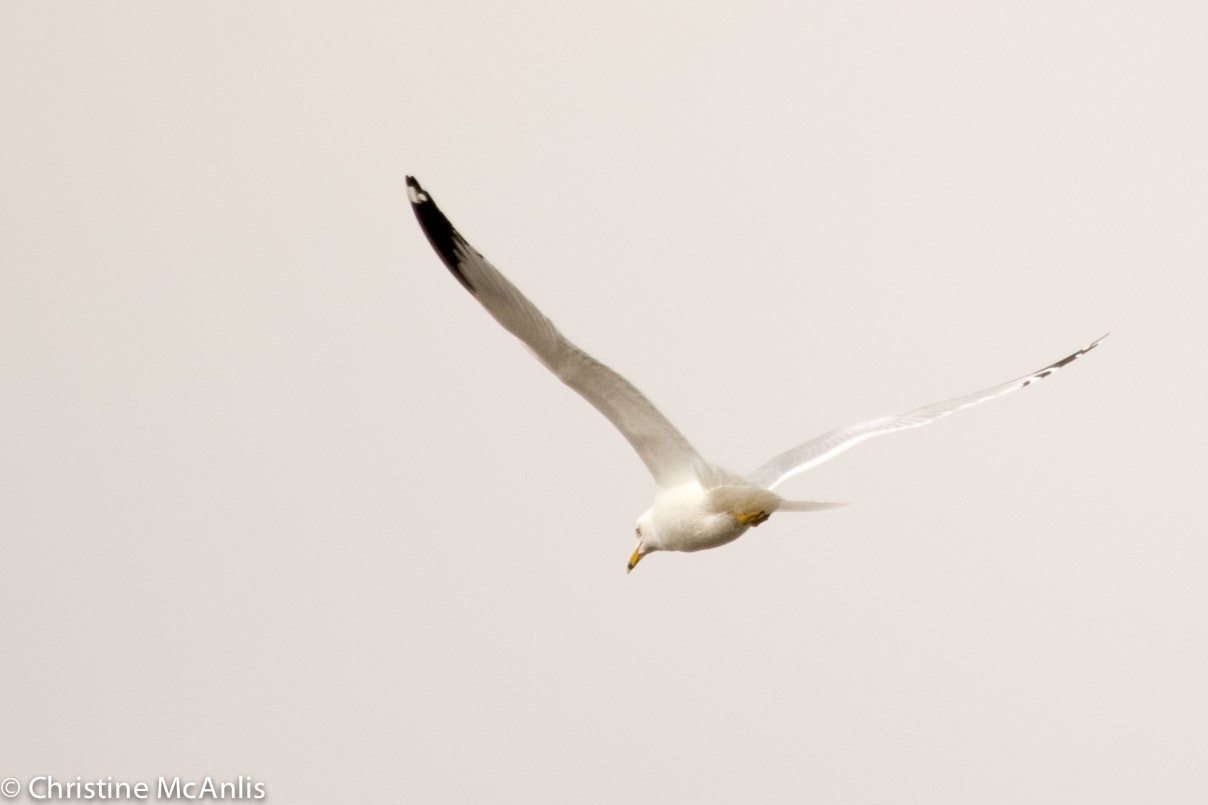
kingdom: Animalia
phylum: Chordata
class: Aves
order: Charadriiformes
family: Laridae
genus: Larus
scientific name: Larus delawarensis
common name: Ring-billed gull
